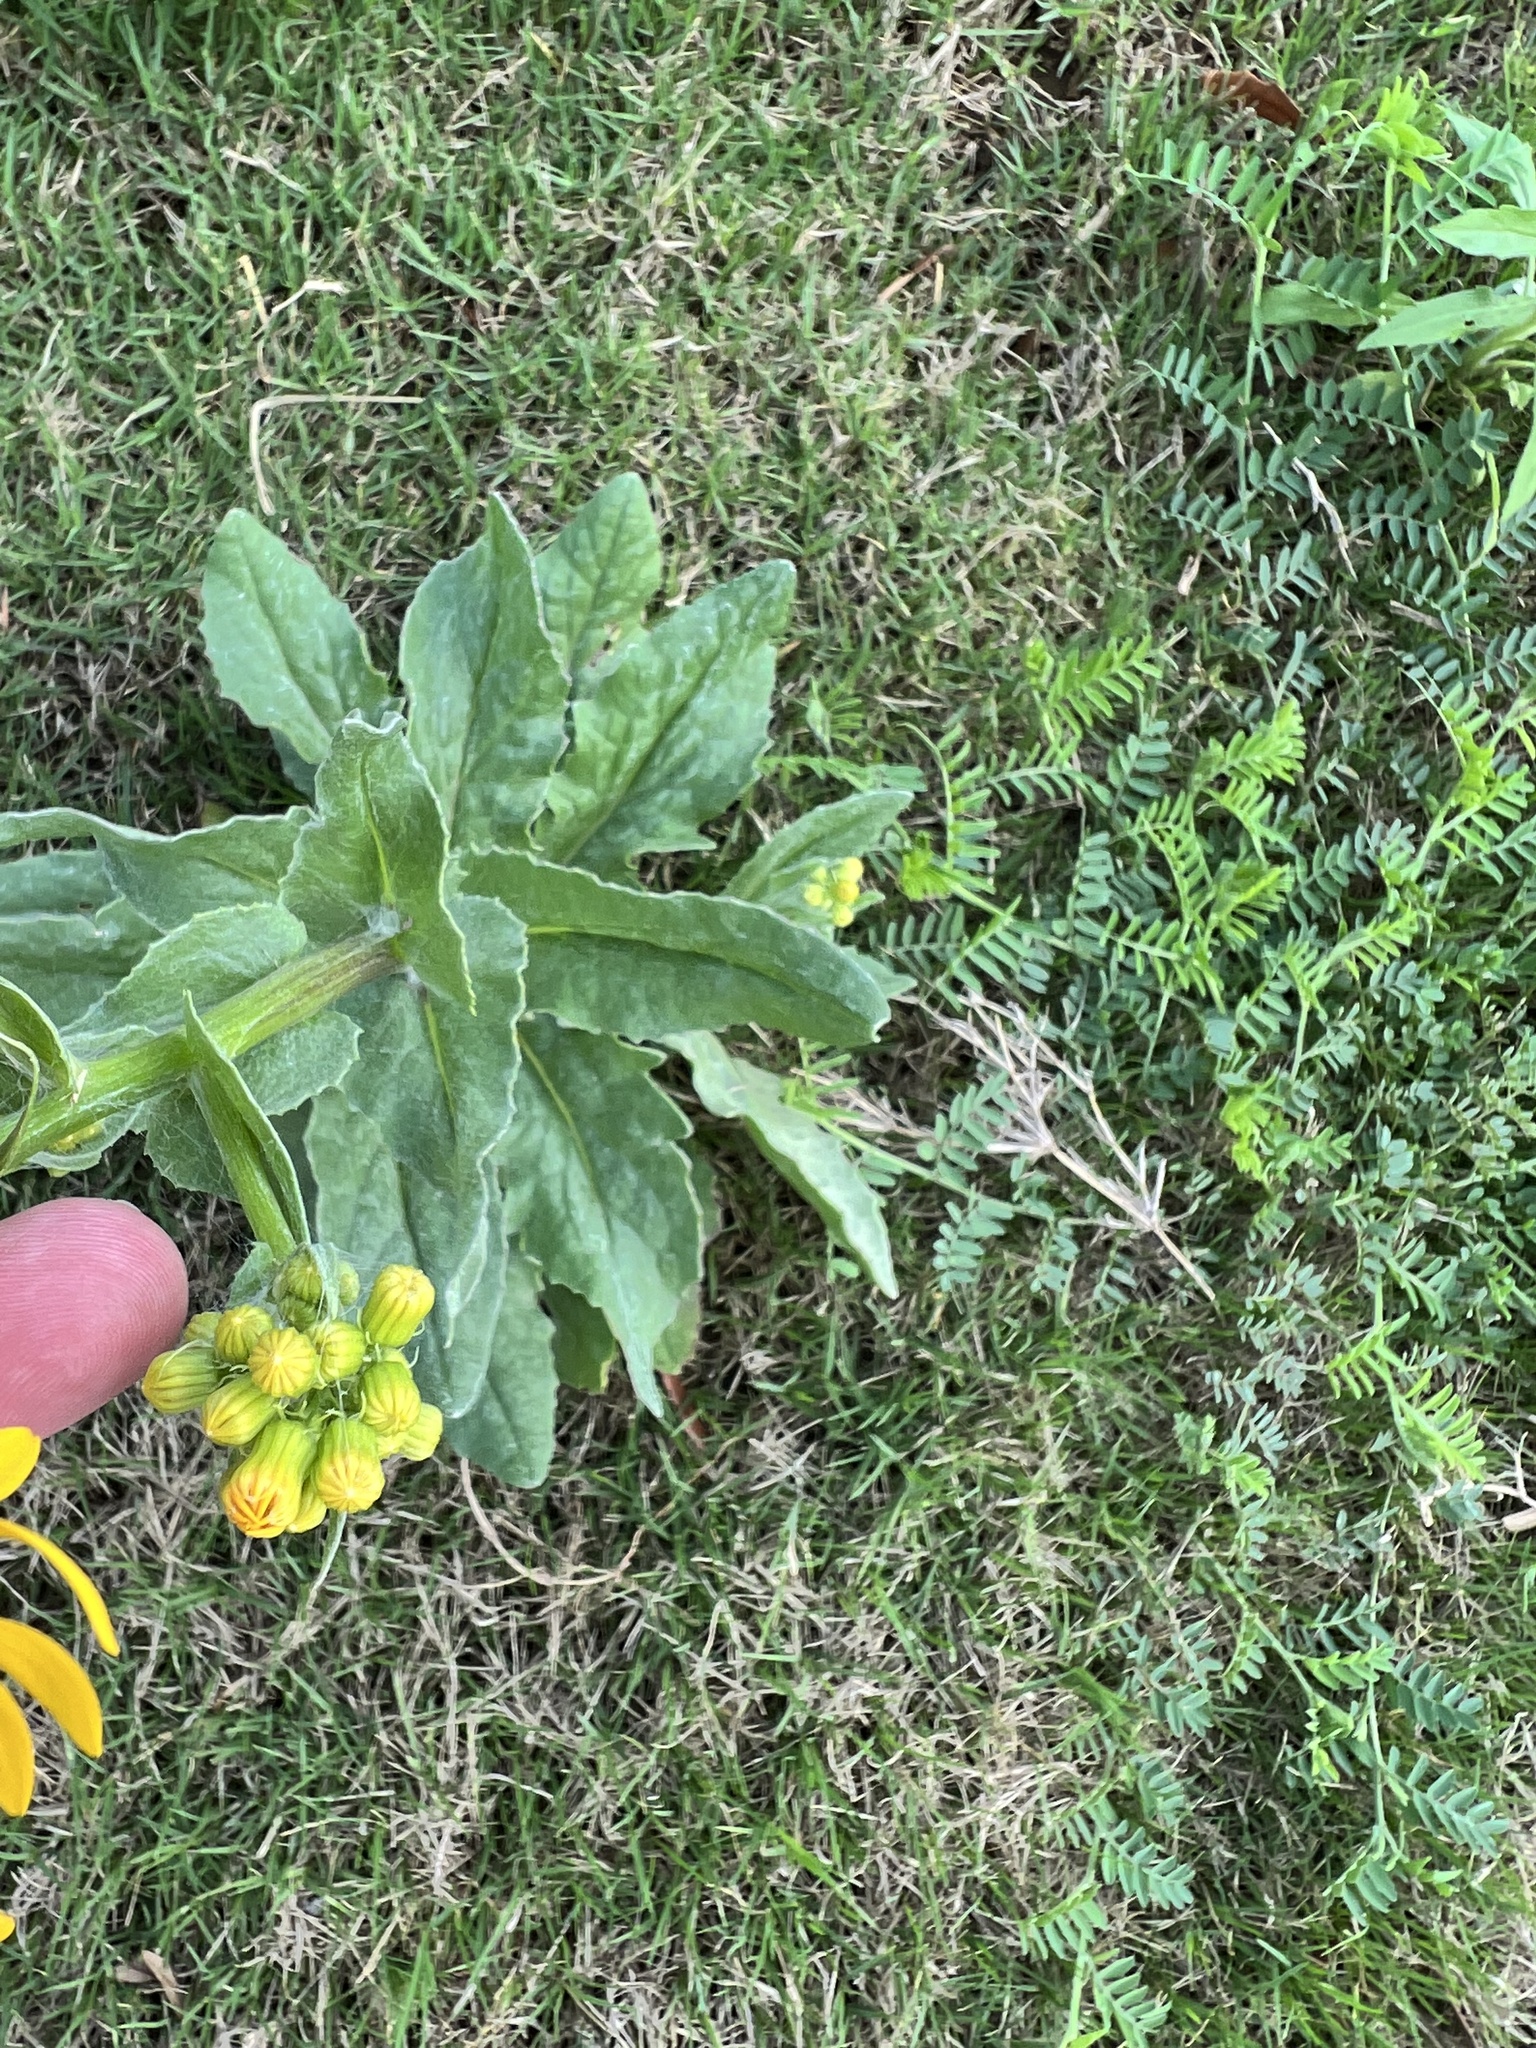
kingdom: Plantae
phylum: Tracheophyta
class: Magnoliopsida
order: Asterales
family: Asteraceae
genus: Senecio
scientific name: Senecio ampullaceus
